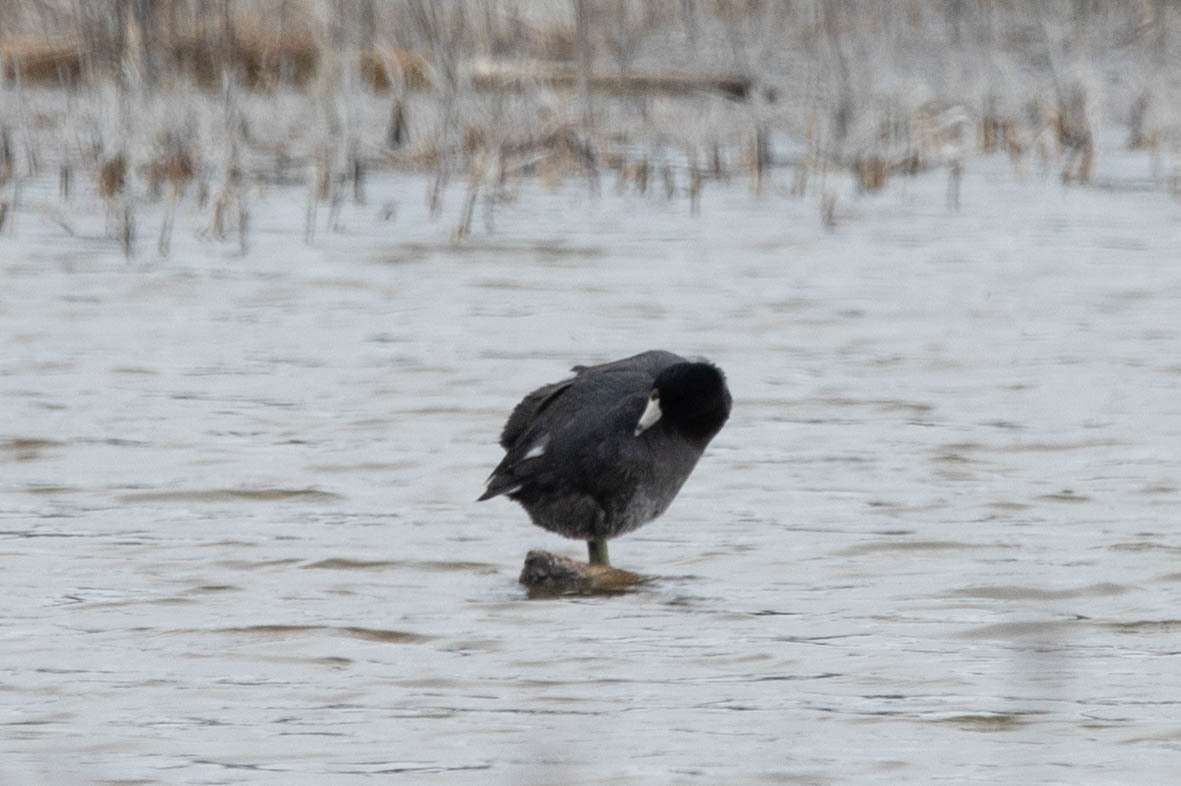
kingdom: Animalia
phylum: Chordata
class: Aves
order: Gruiformes
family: Rallidae
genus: Fulica
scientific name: Fulica americana
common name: American coot
